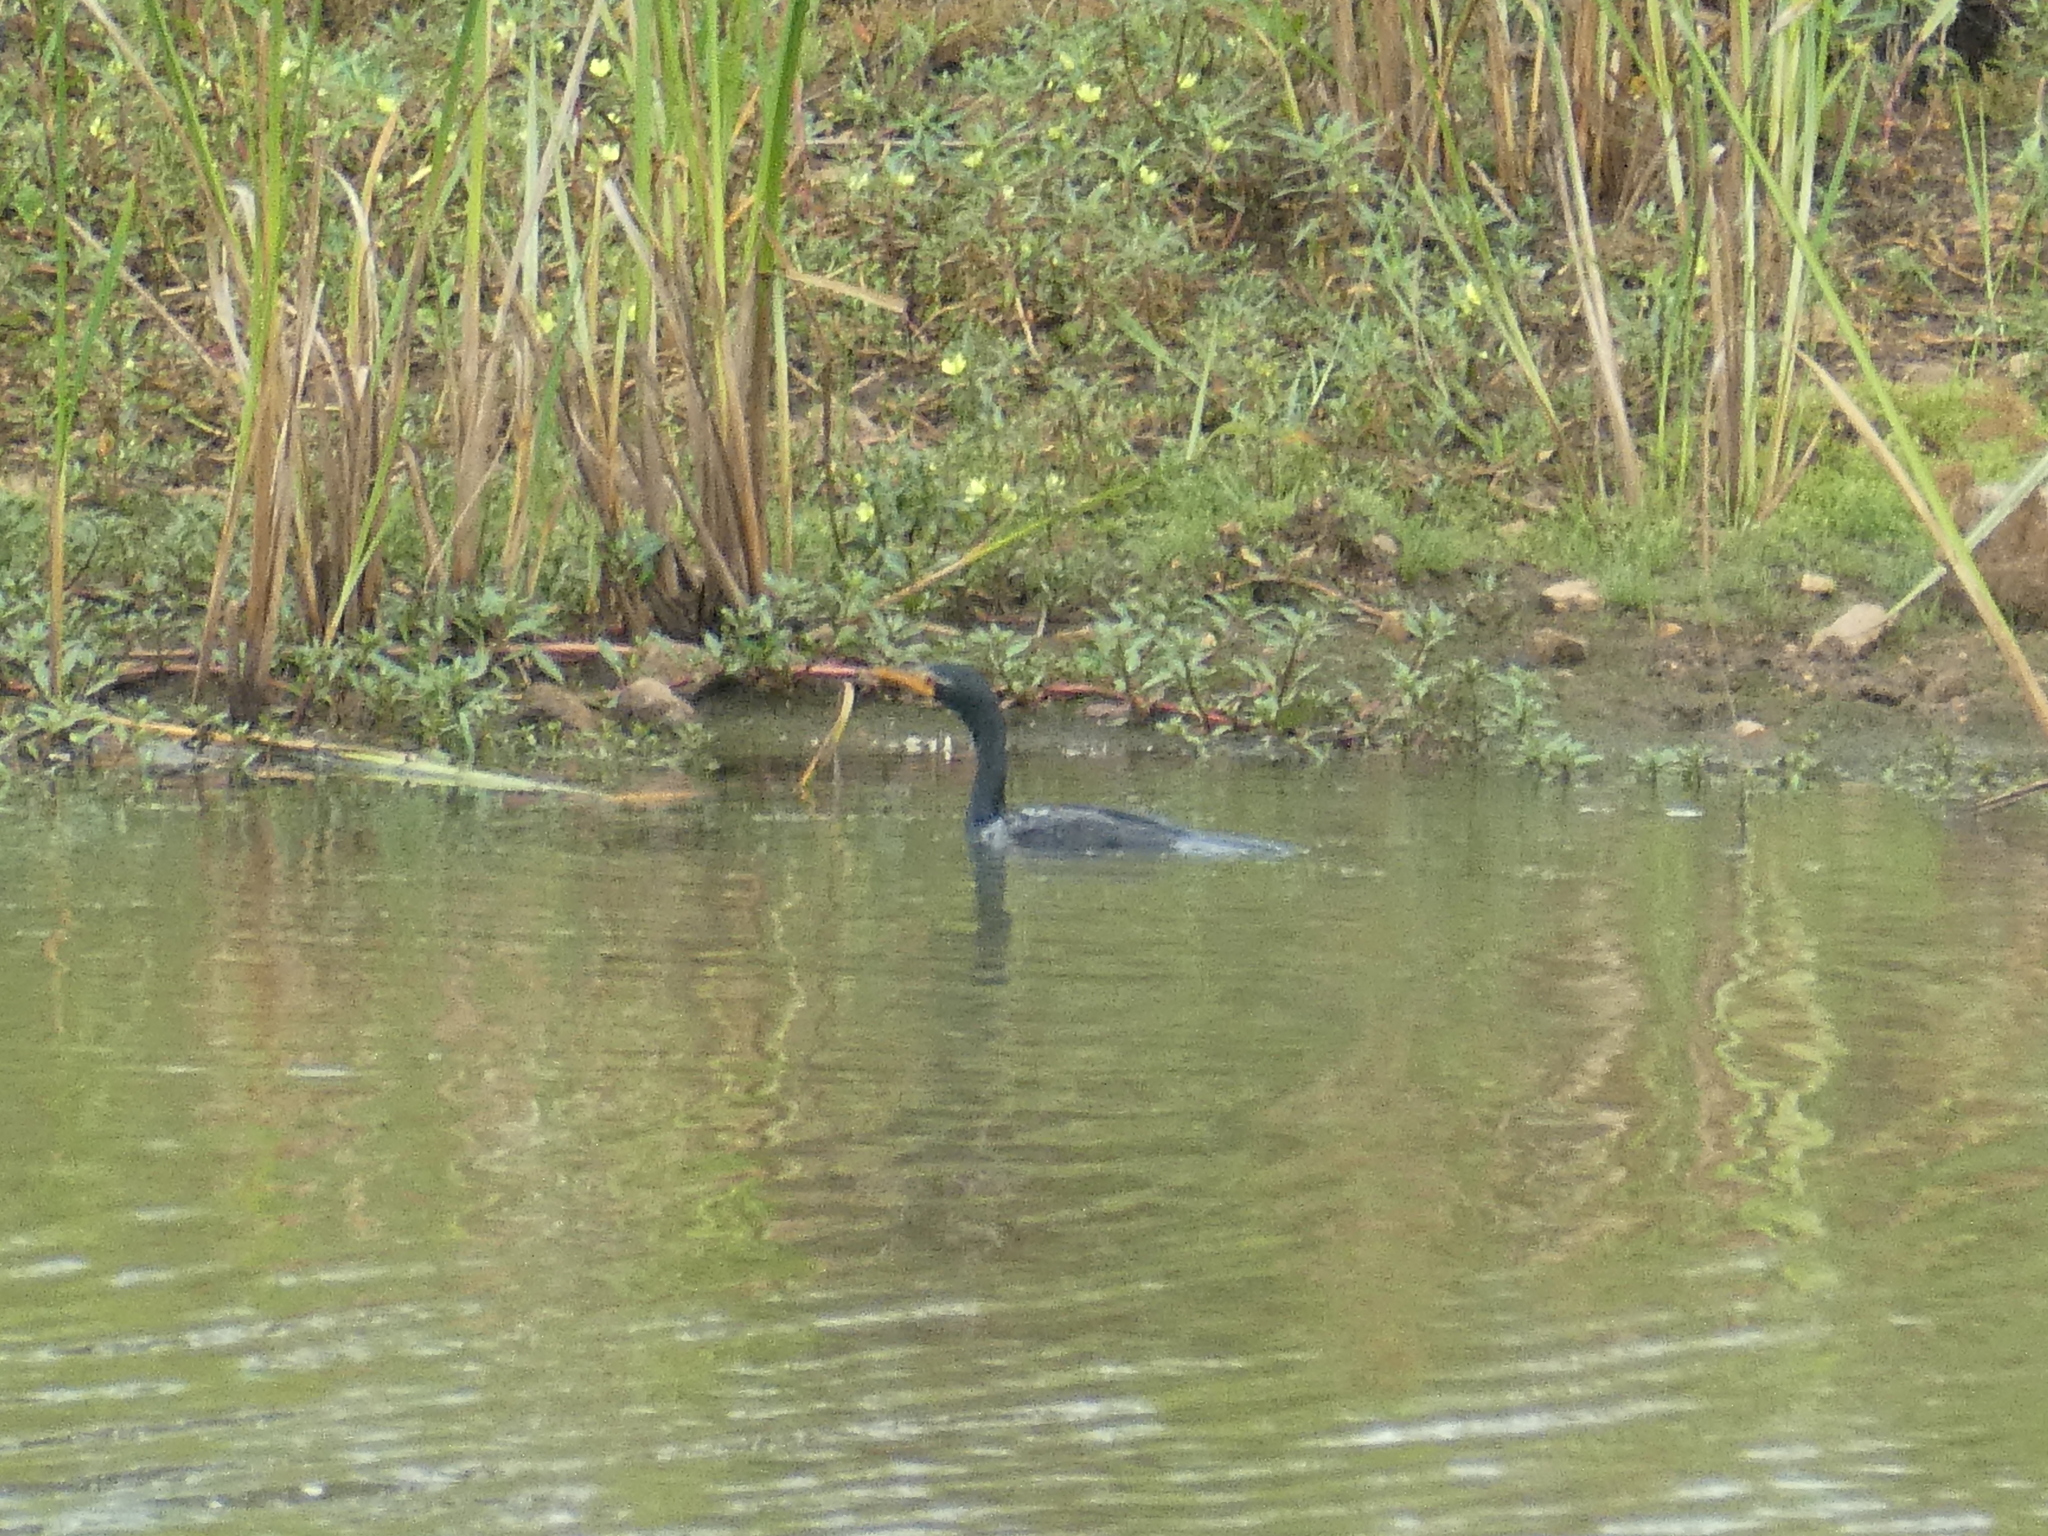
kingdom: Animalia
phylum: Chordata
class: Aves
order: Suliformes
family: Phalacrocoracidae
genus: Microcarbo
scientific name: Microcarbo africanus
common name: Long-tailed cormorant
